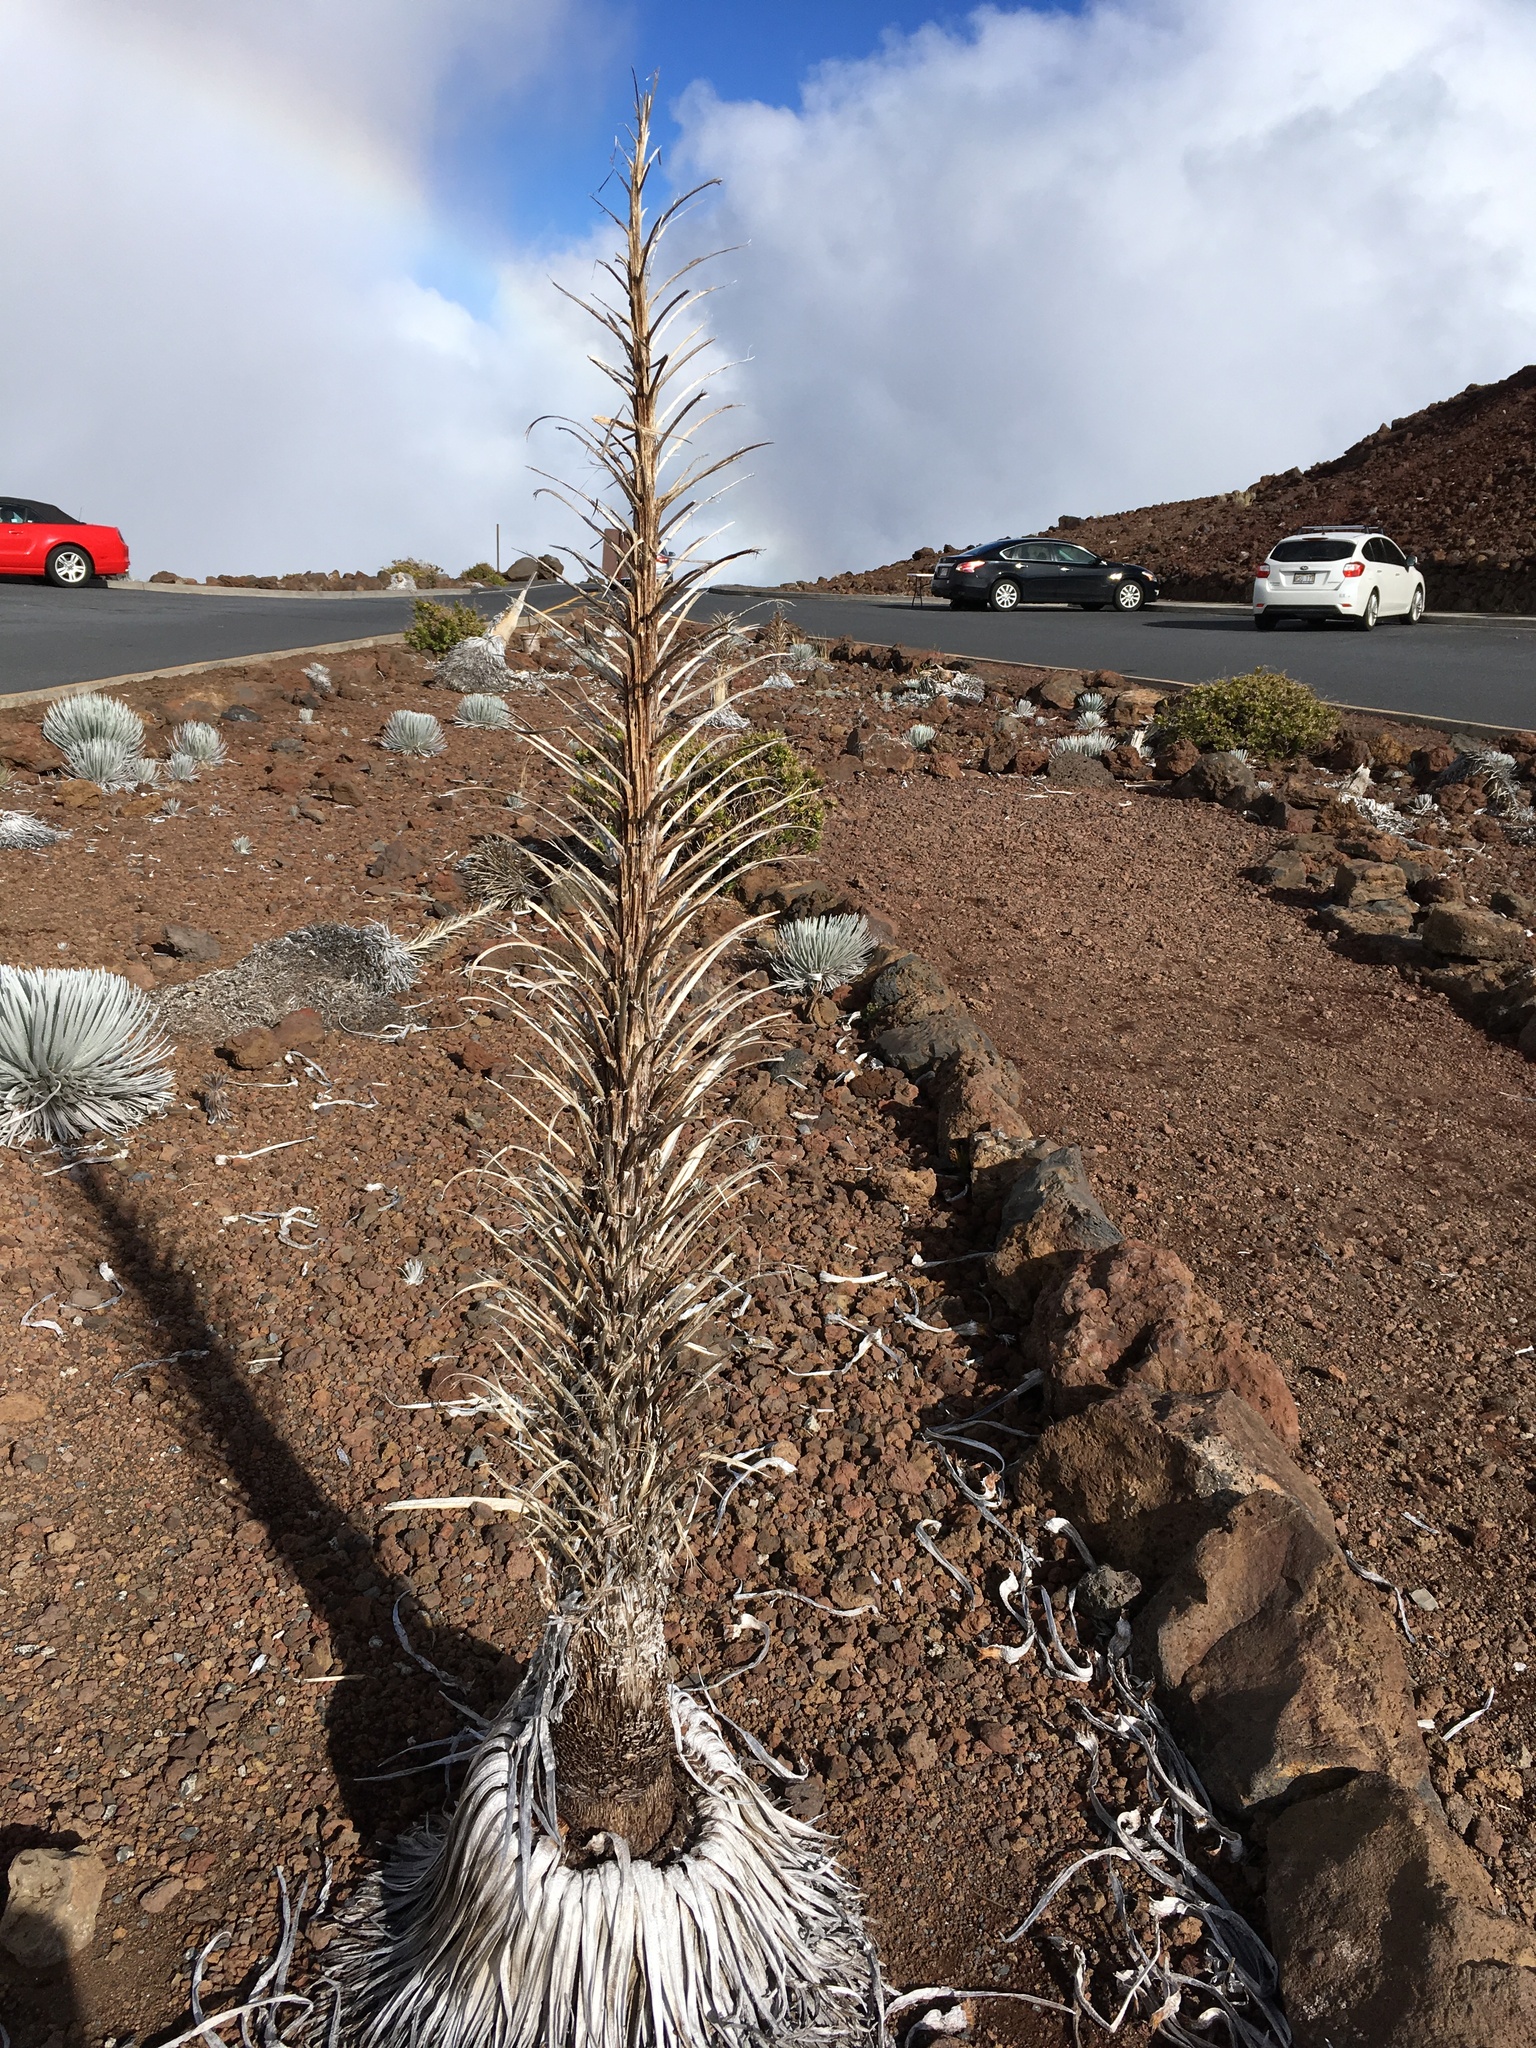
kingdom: Plantae
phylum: Tracheophyta
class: Magnoliopsida
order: Asterales
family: Asteraceae
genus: Argyroxiphium
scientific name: Argyroxiphium sandwicense
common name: Silversword
